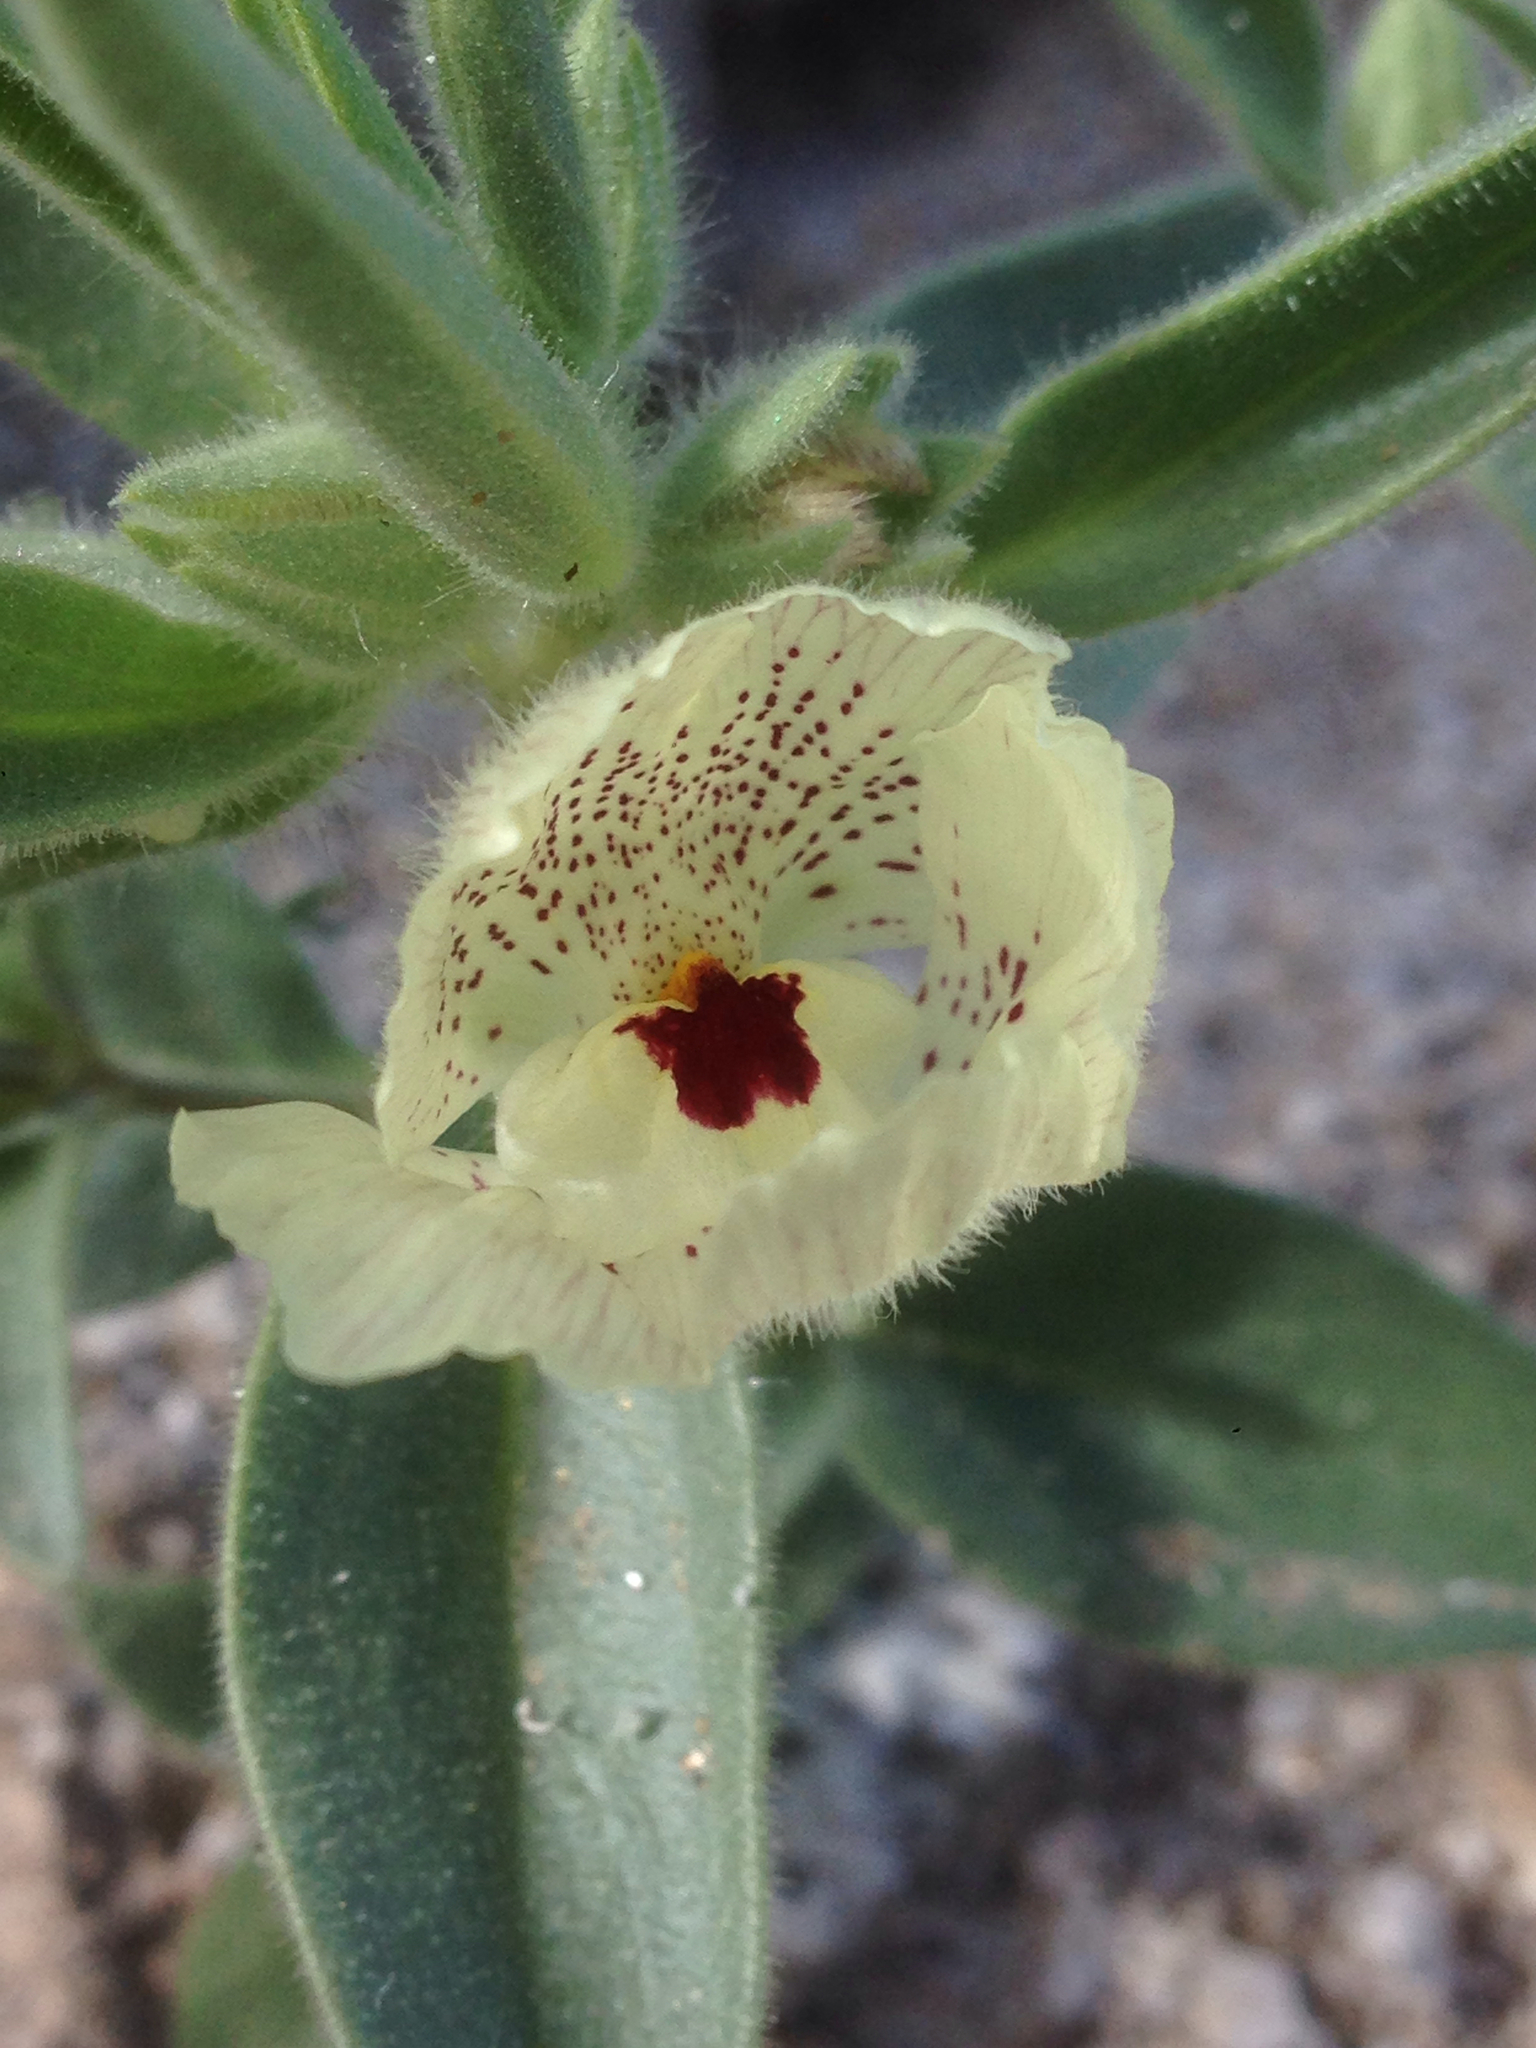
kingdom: Plantae
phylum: Tracheophyta
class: Magnoliopsida
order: Lamiales
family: Plantaginaceae
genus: Mohavea
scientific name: Mohavea confertiflora
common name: Ghost flower
